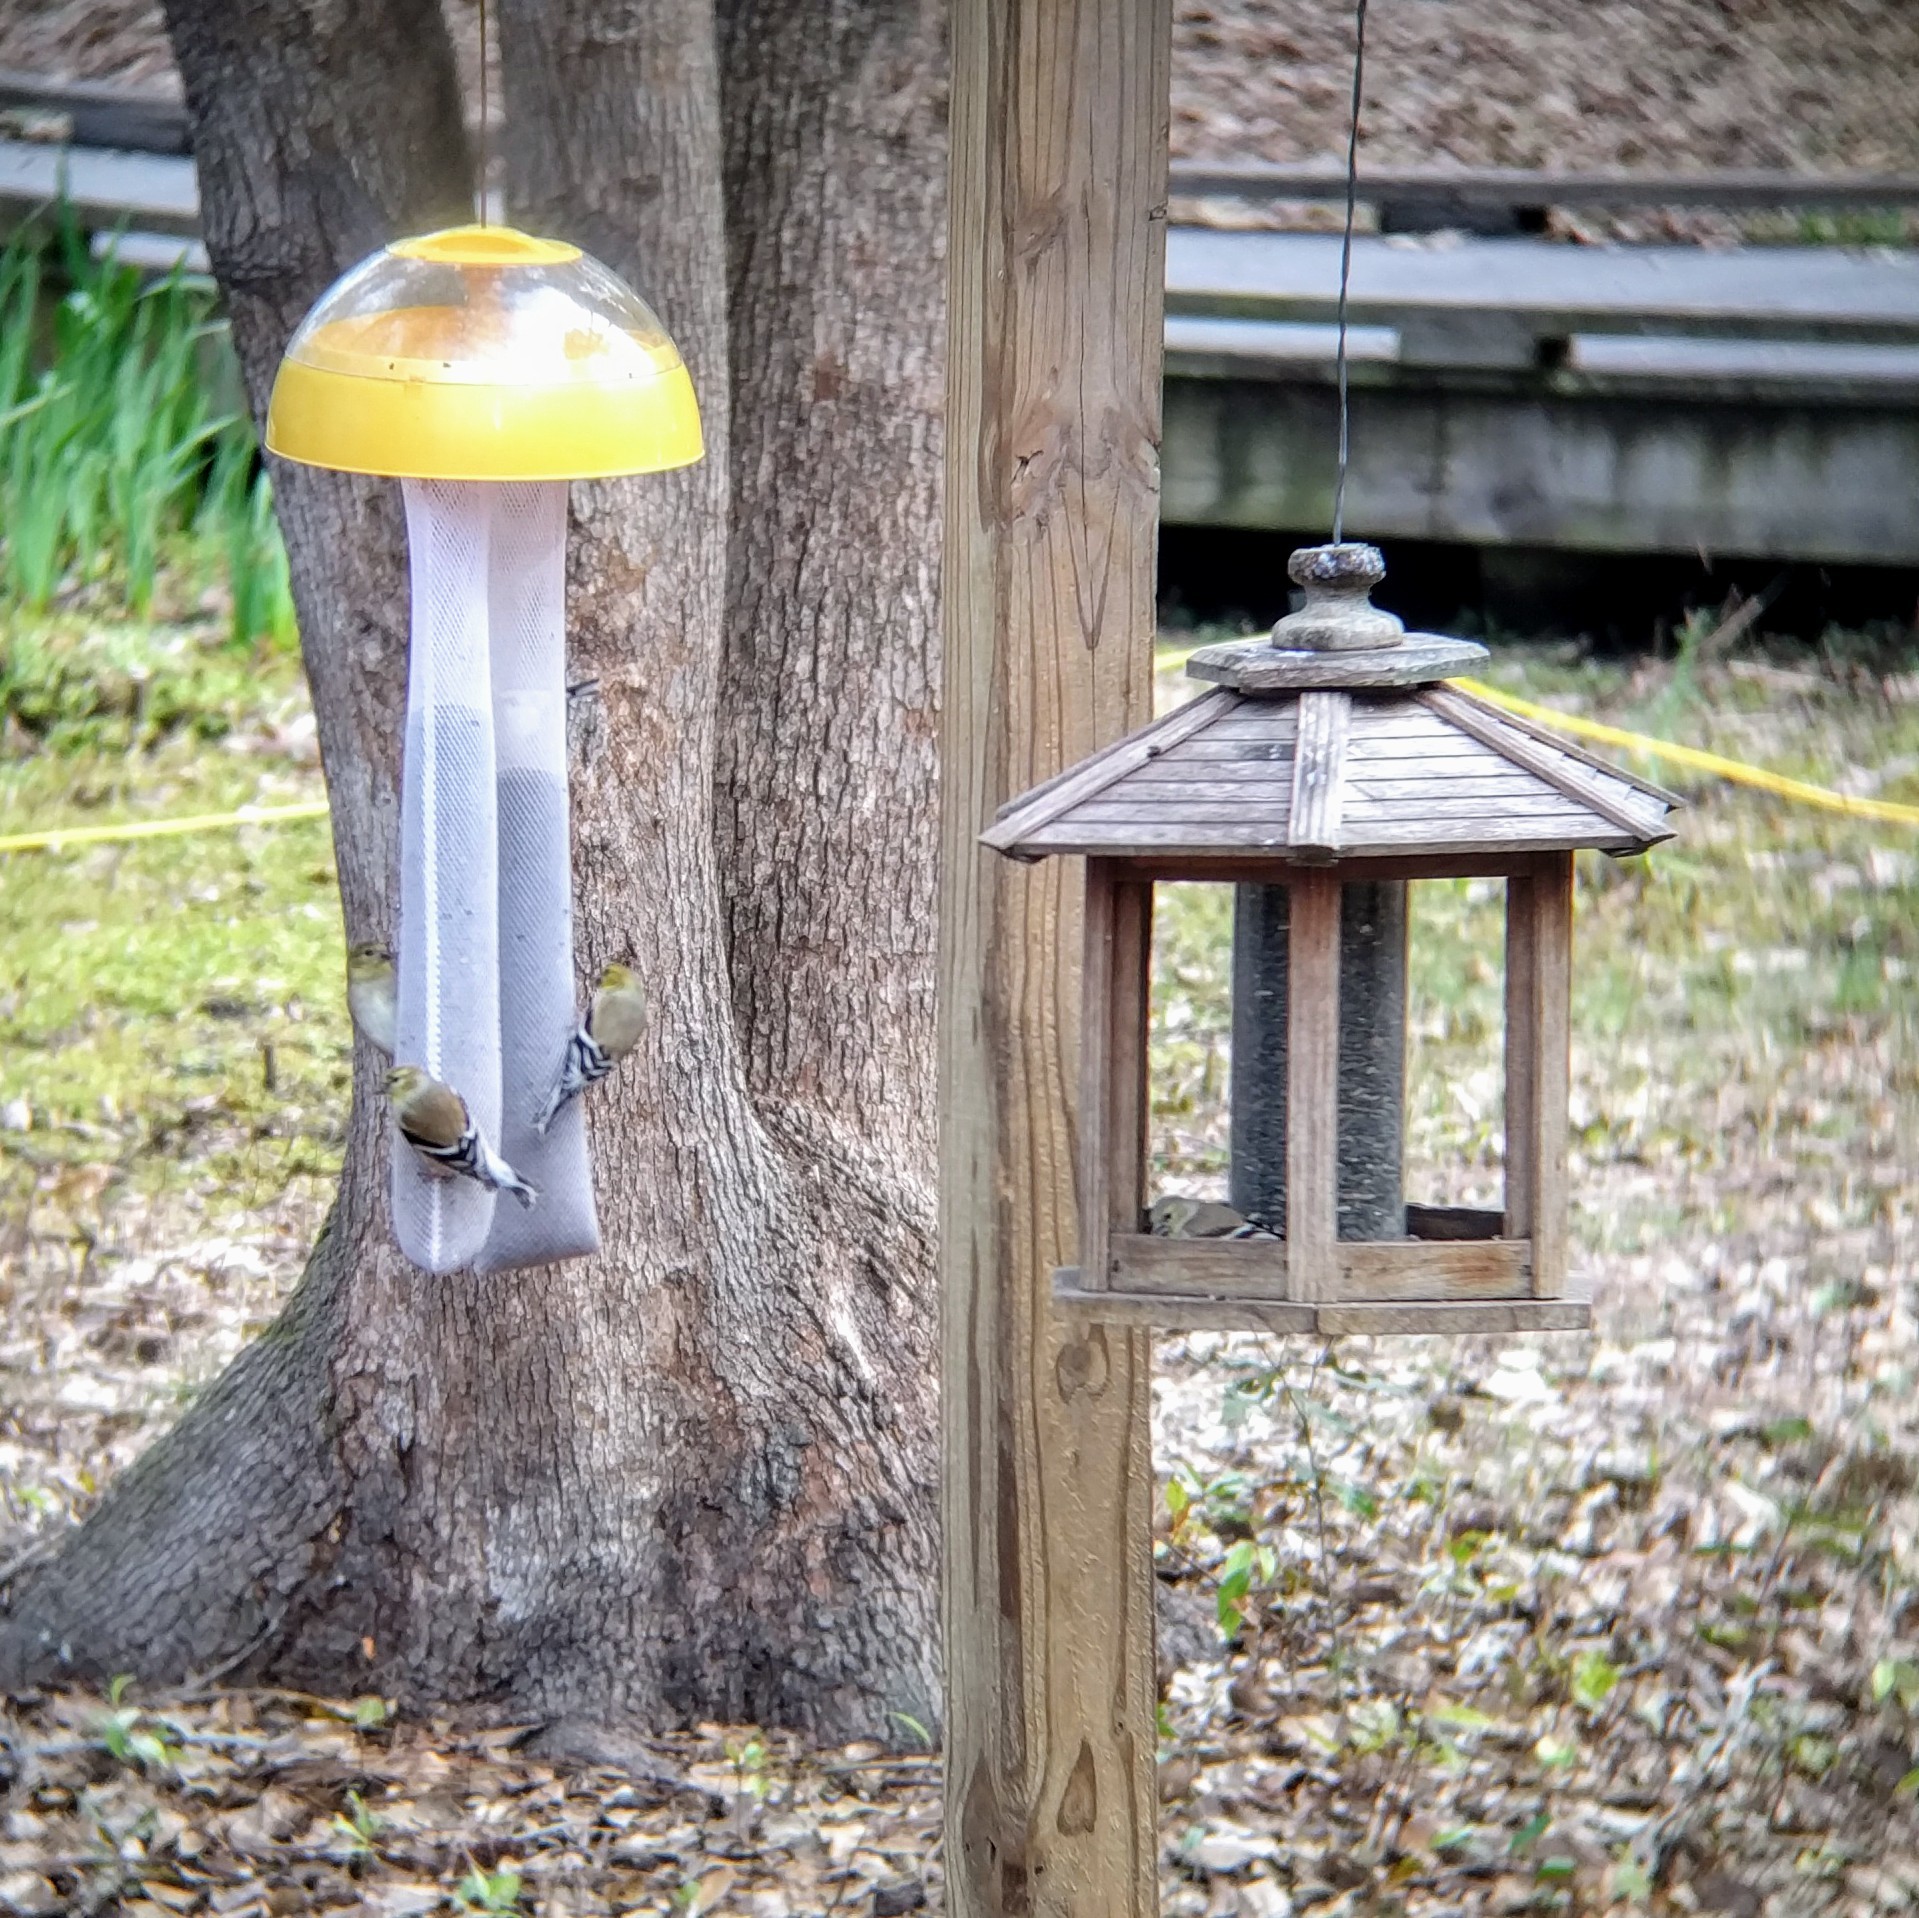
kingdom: Animalia
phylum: Chordata
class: Aves
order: Passeriformes
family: Fringillidae
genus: Spinus
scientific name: Spinus tristis
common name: American goldfinch
